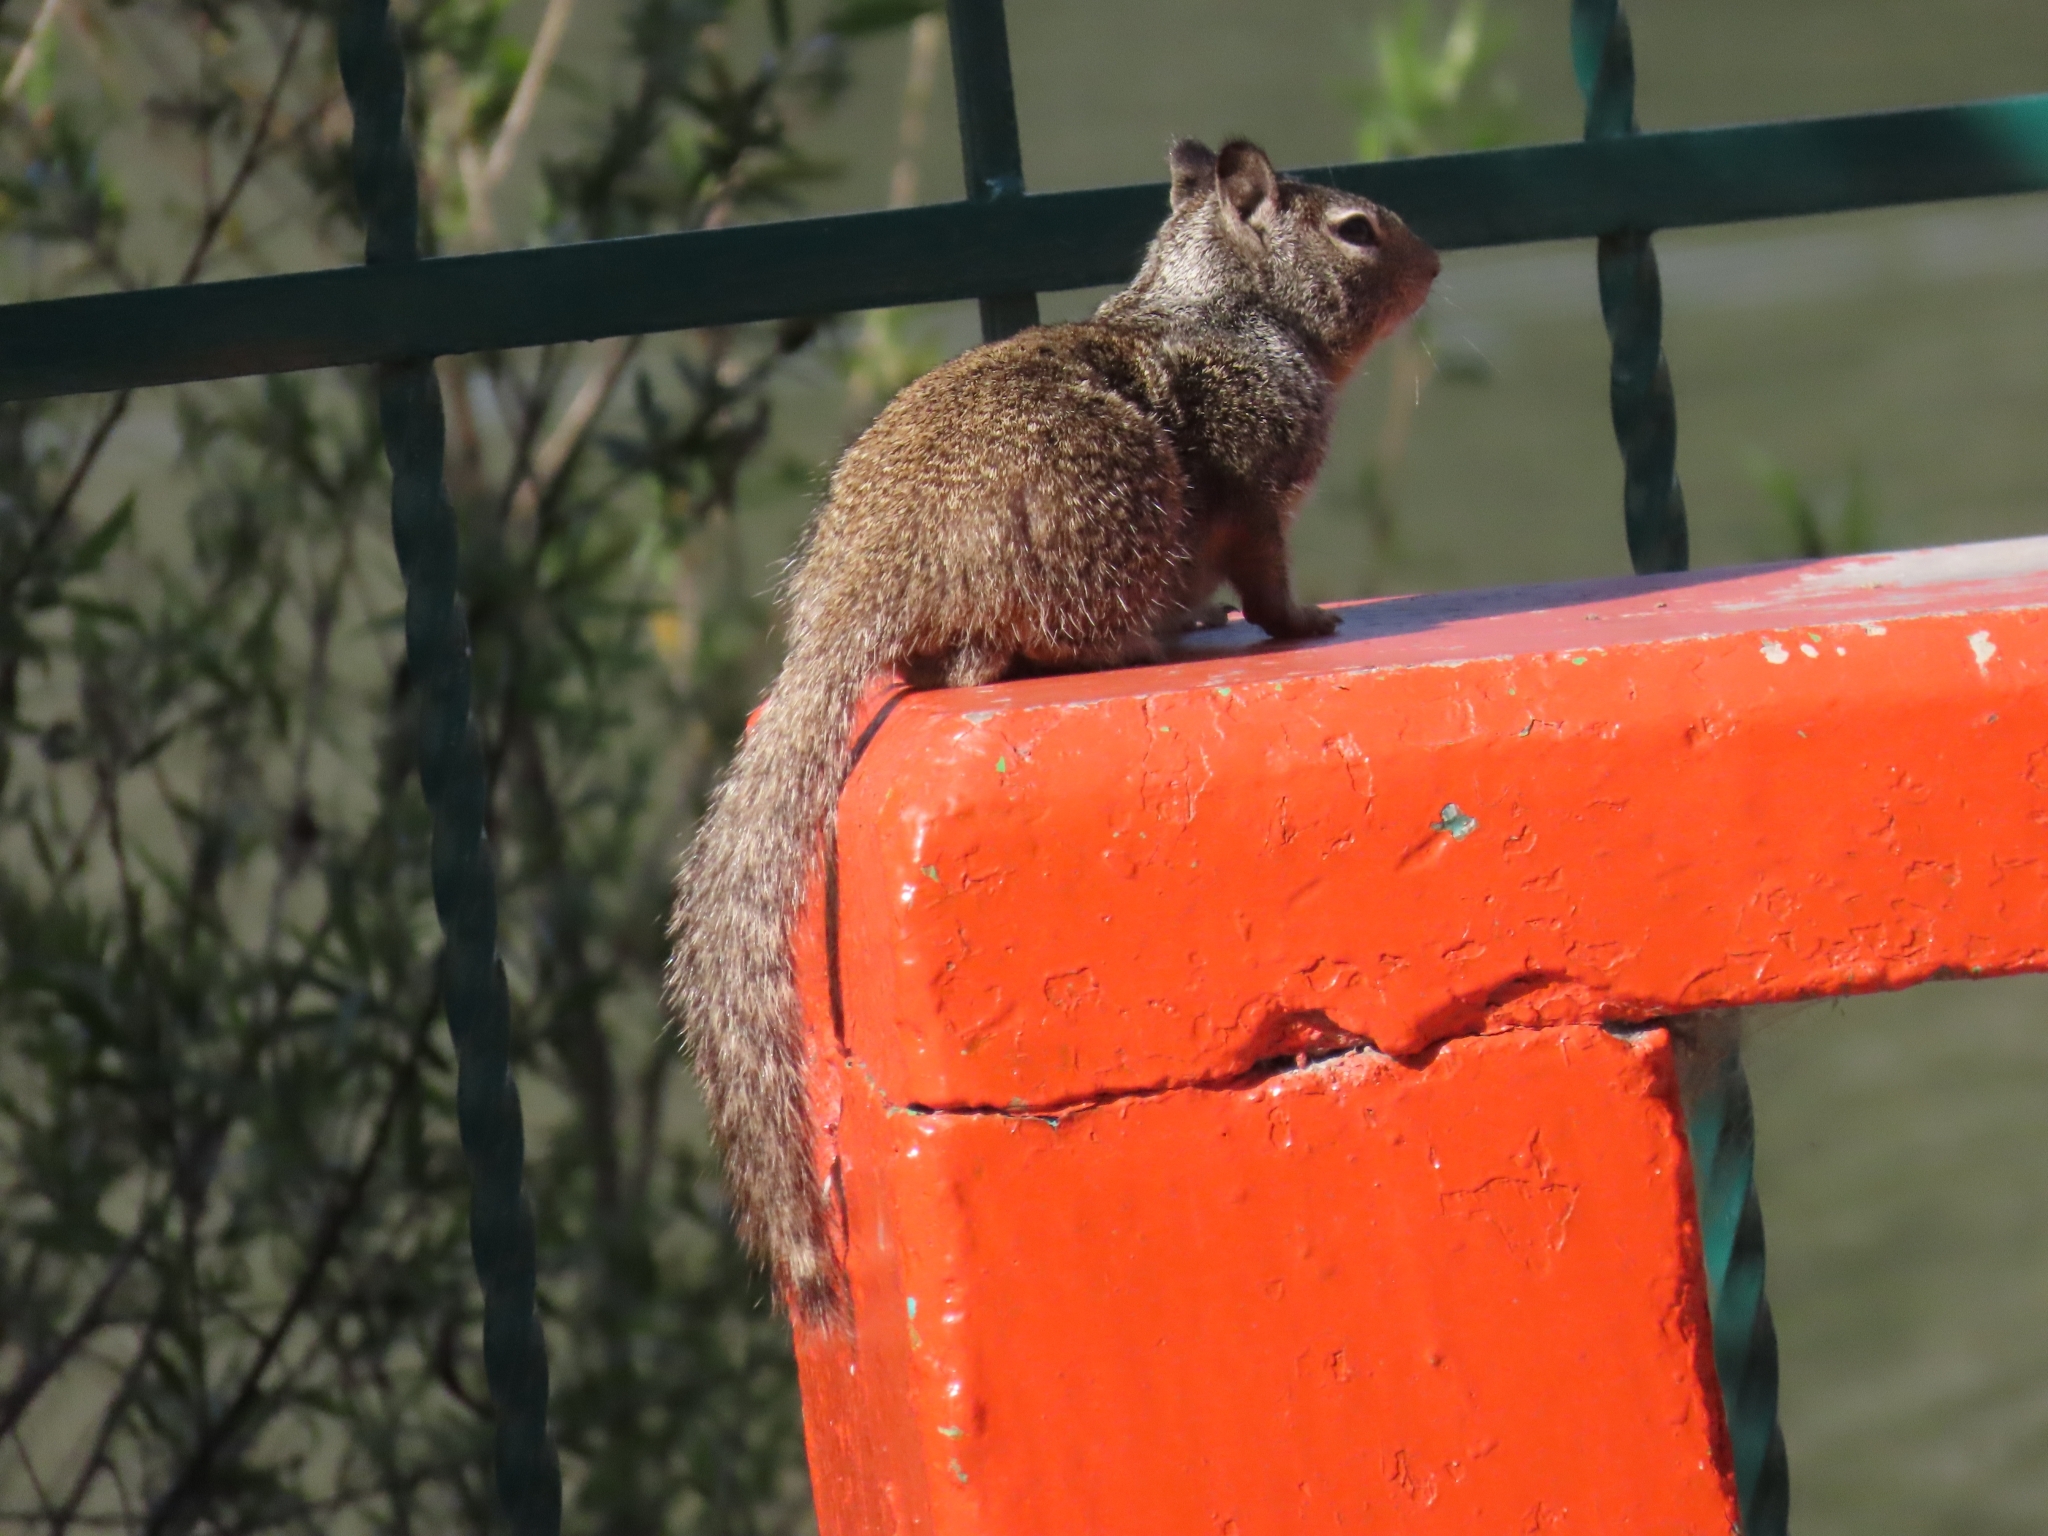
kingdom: Animalia
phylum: Chordata
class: Mammalia
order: Rodentia
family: Sciuridae
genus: Otospermophilus
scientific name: Otospermophilus beecheyi
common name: California ground squirrel
